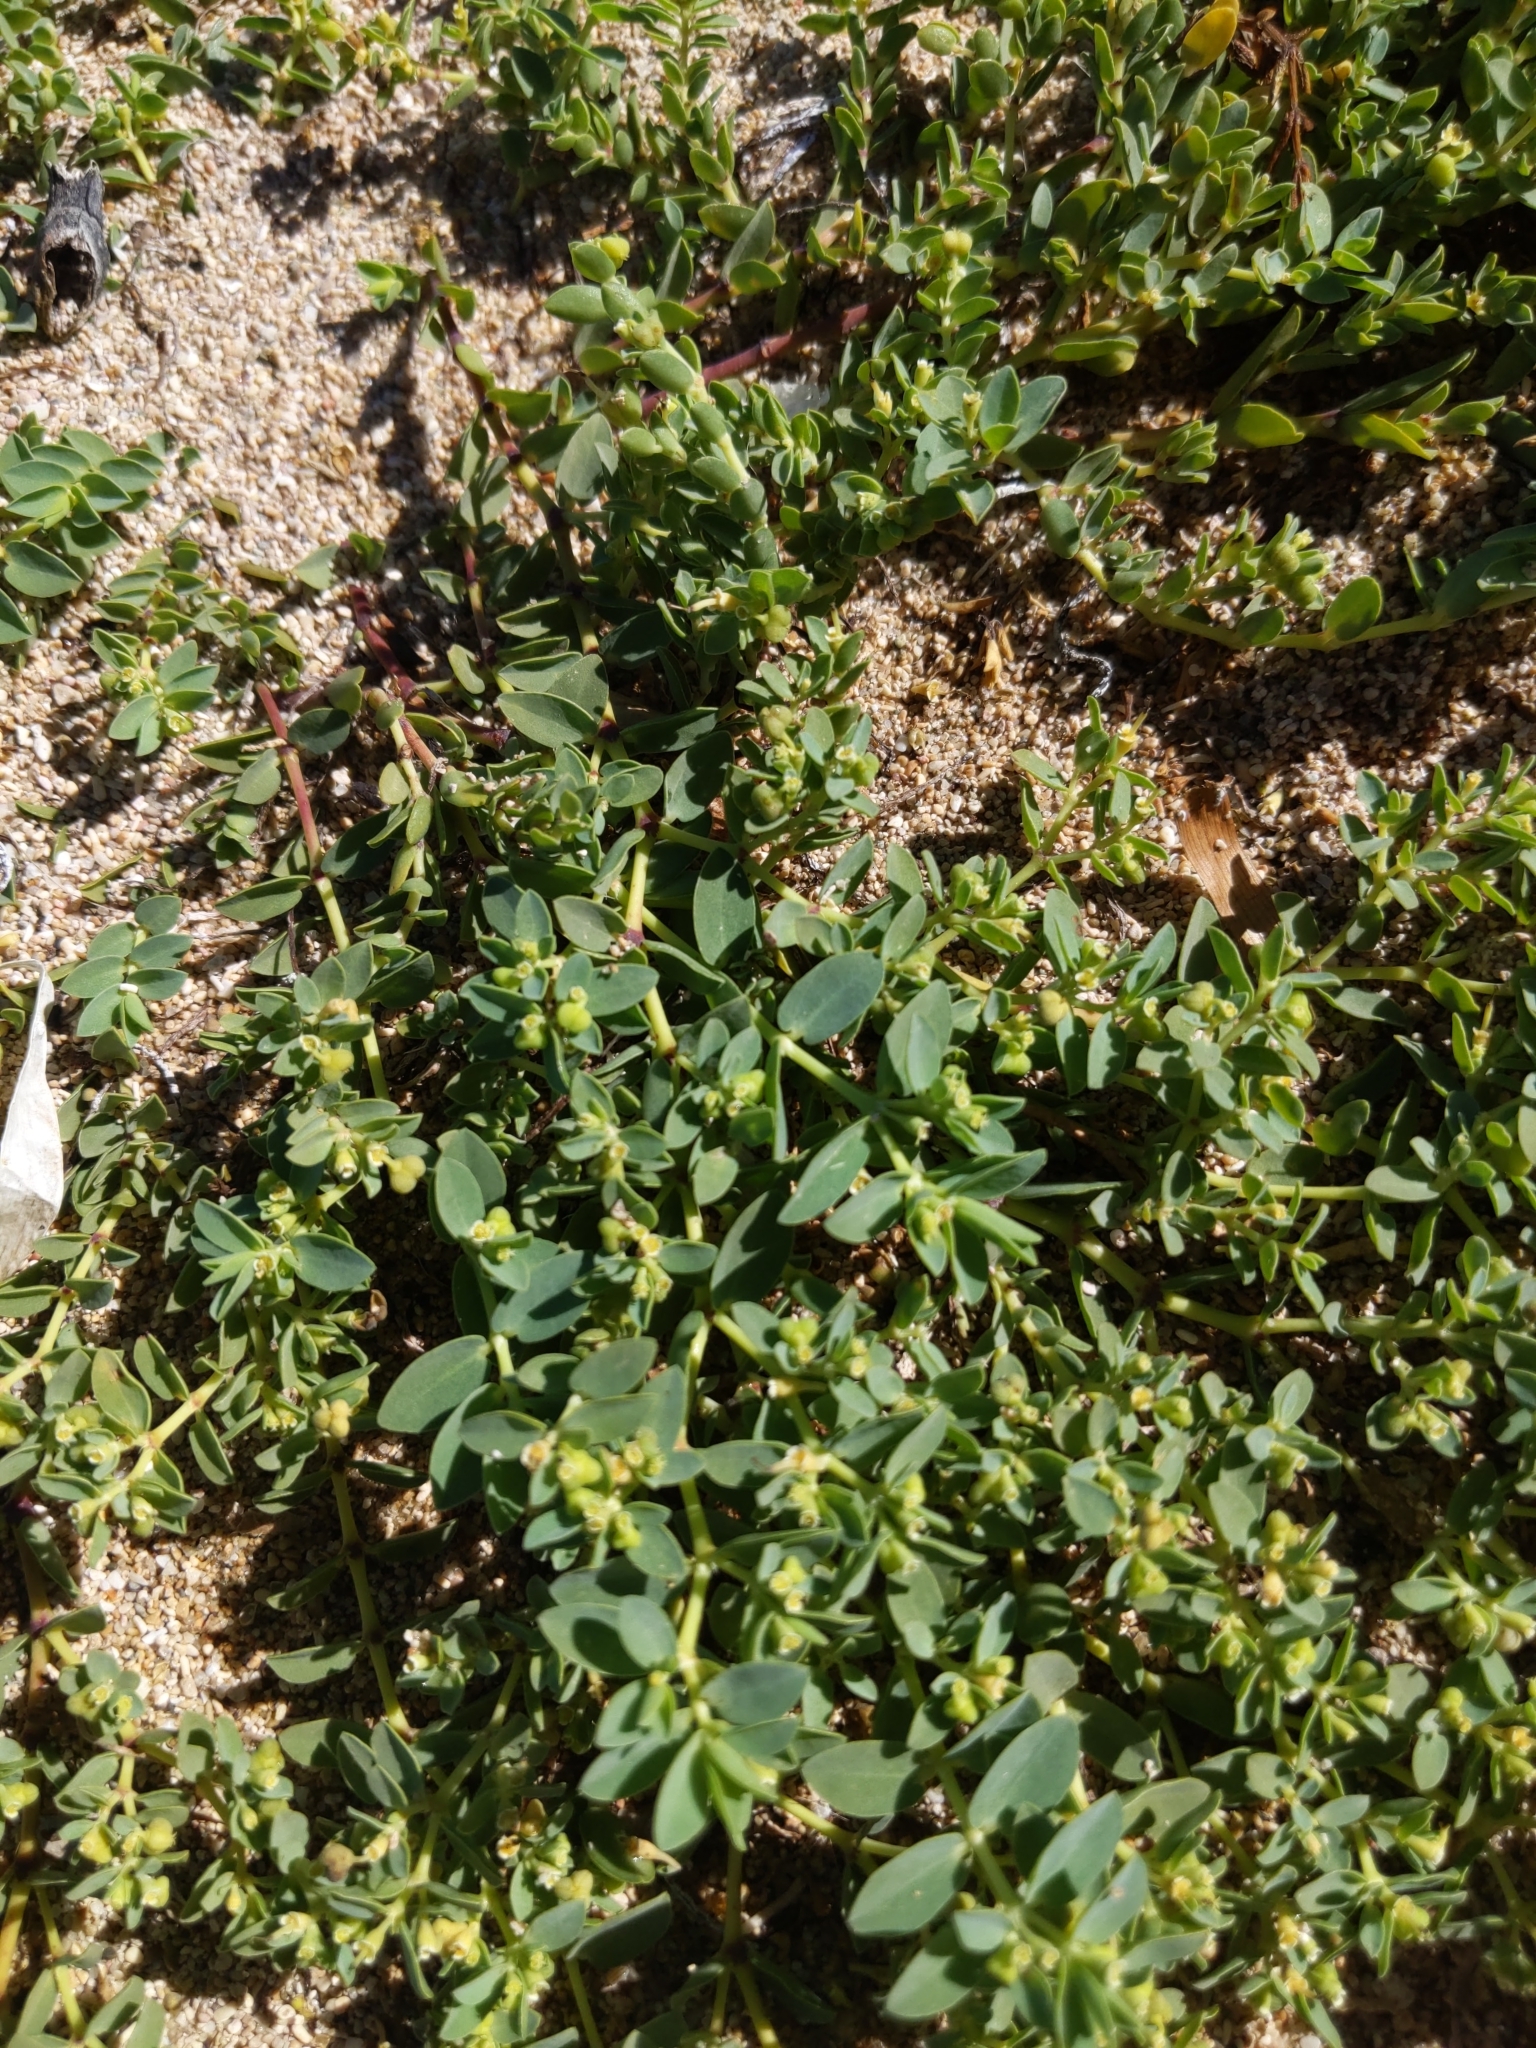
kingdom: Plantae
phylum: Tracheophyta
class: Magnoliopsida
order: Malpighiales
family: Euphorbiaceae
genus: Euphorbia
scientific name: Euphorbia mesembryanthemifolia
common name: Coastal beach sandmat
